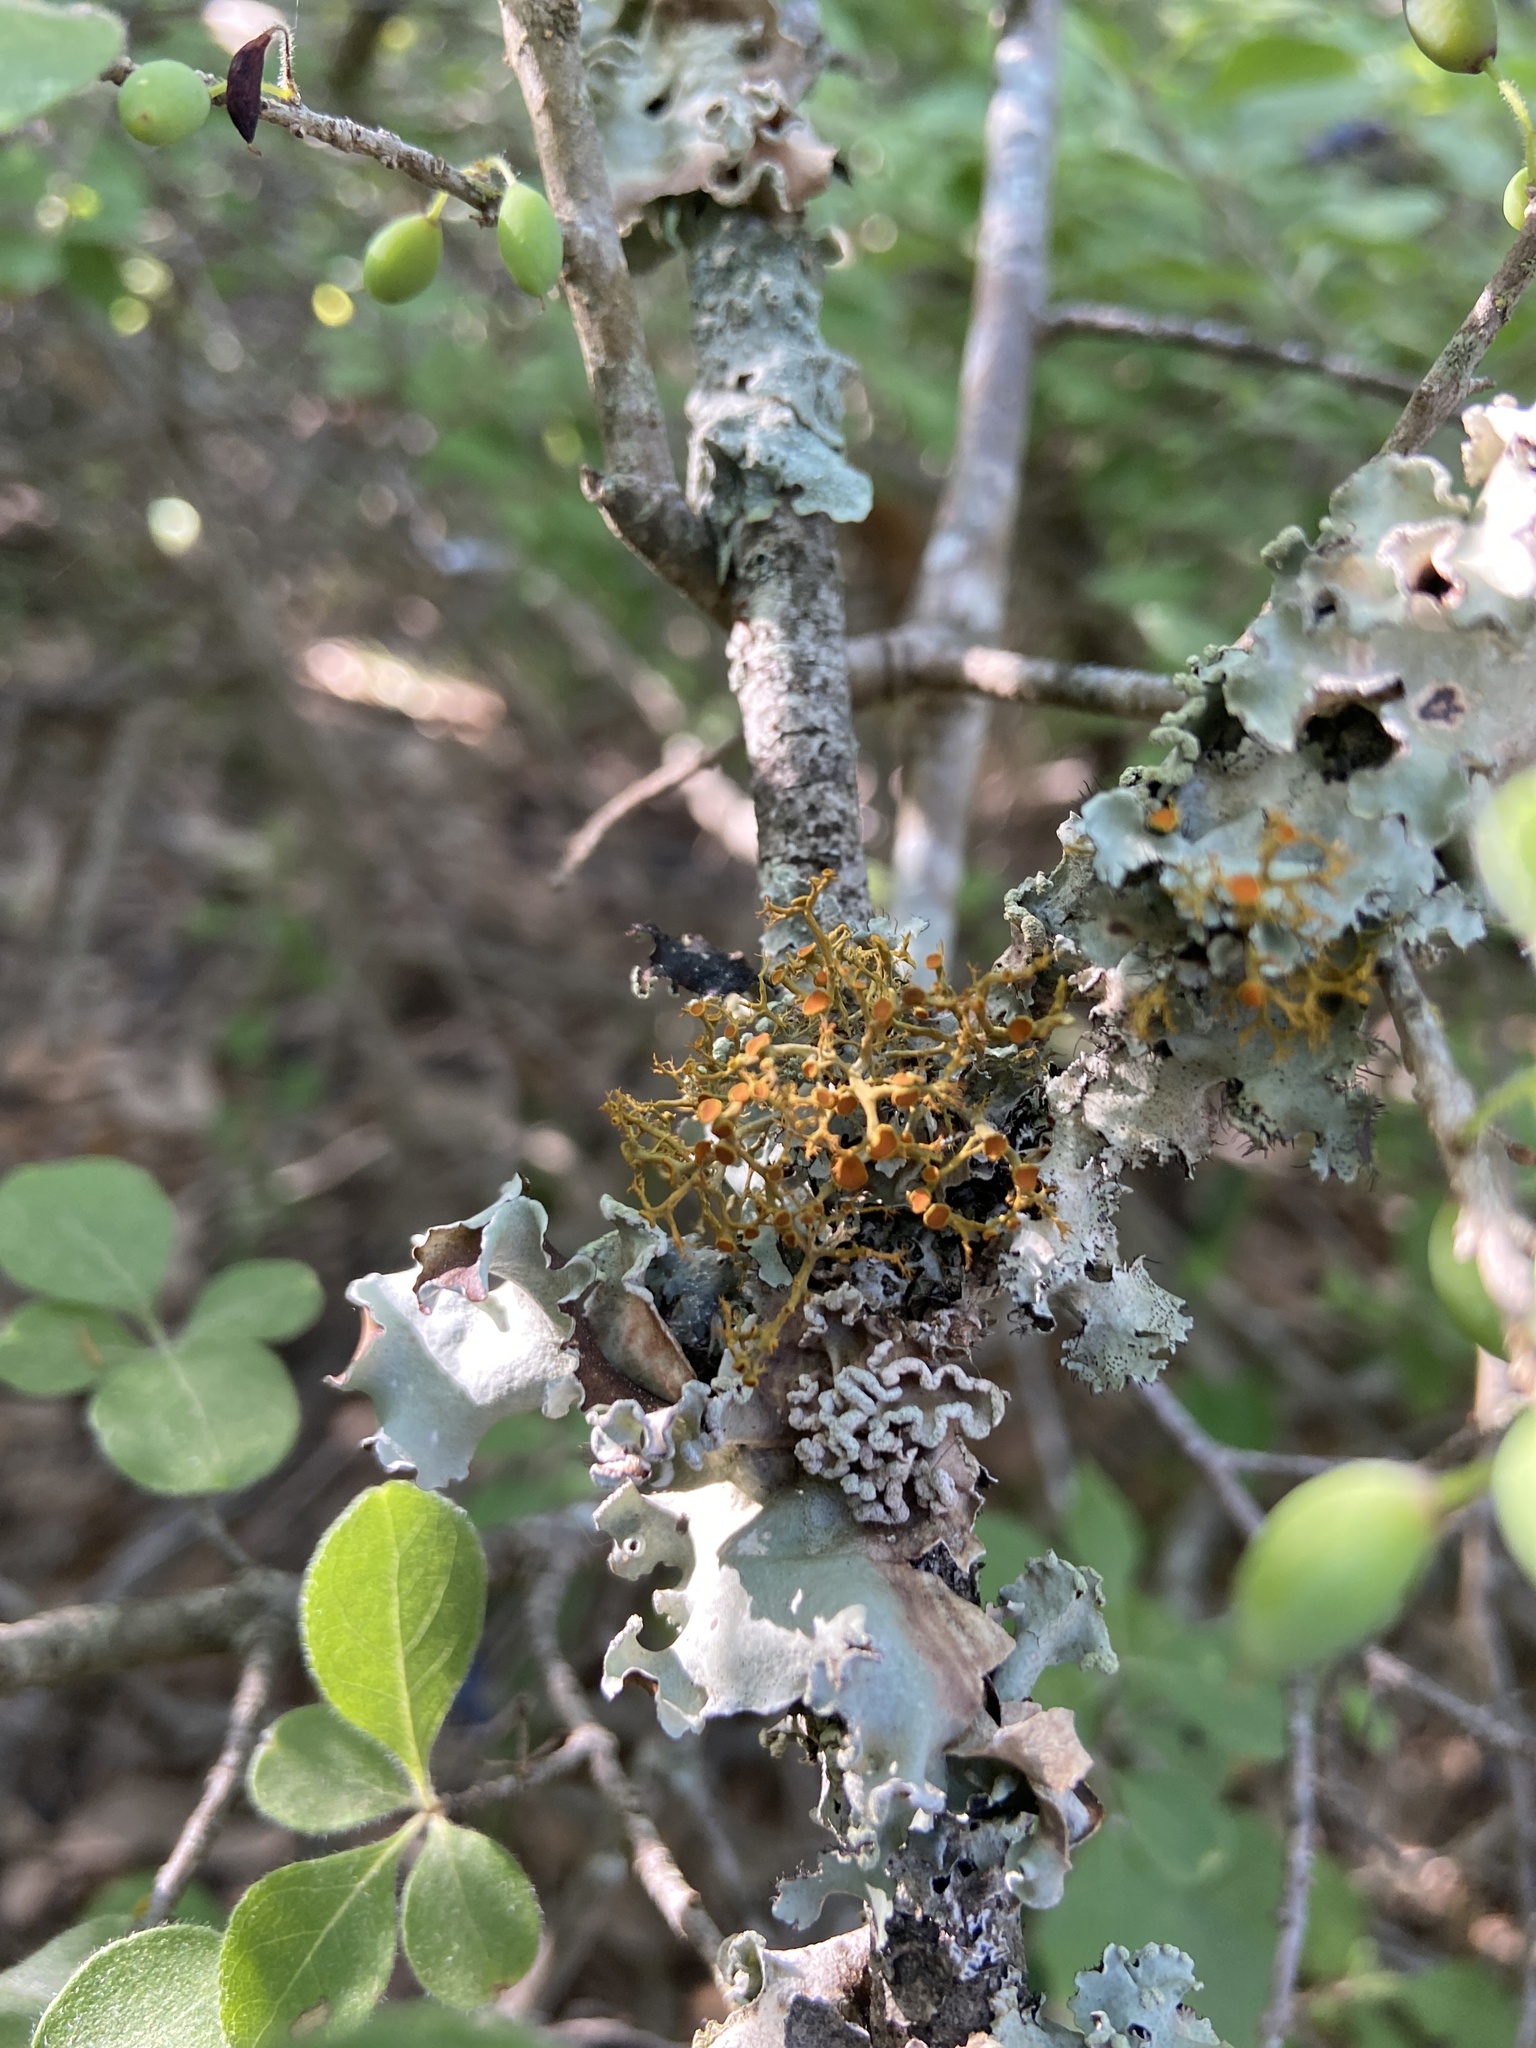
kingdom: Fungi
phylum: Ascomycota
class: Lecanoromycetes
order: Teloschistales
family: Teloschistaceae
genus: Teloschistes
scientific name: Teloschistes exilis
